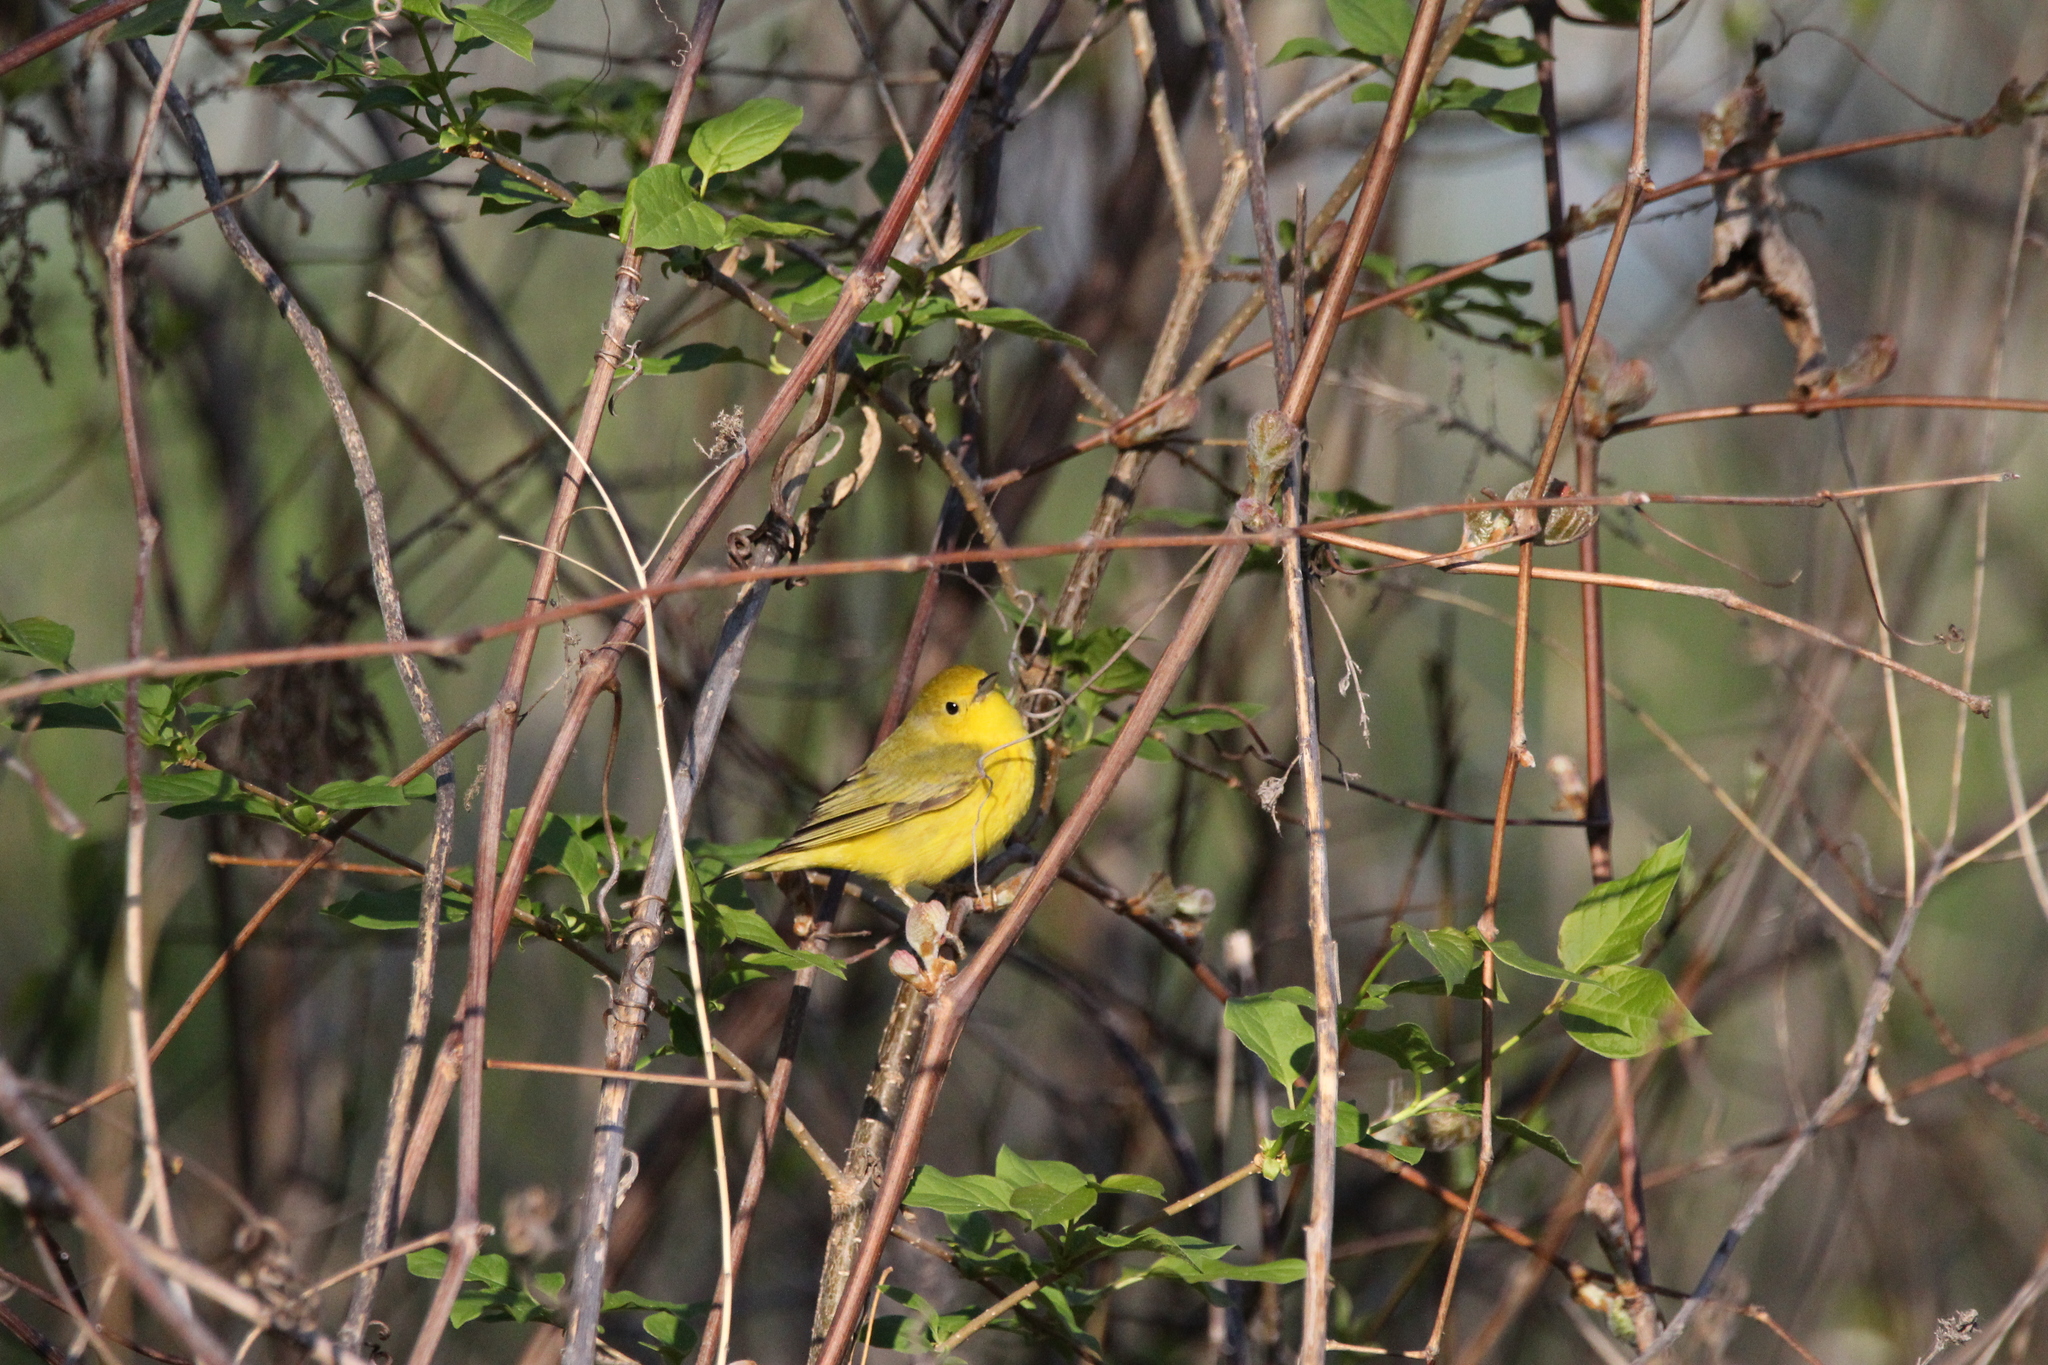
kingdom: Animalia
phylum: Chordata
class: Aves
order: Passeriformes
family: Parulidae
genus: Setophaga
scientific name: Setophaga petechia
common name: Yellow warbler
